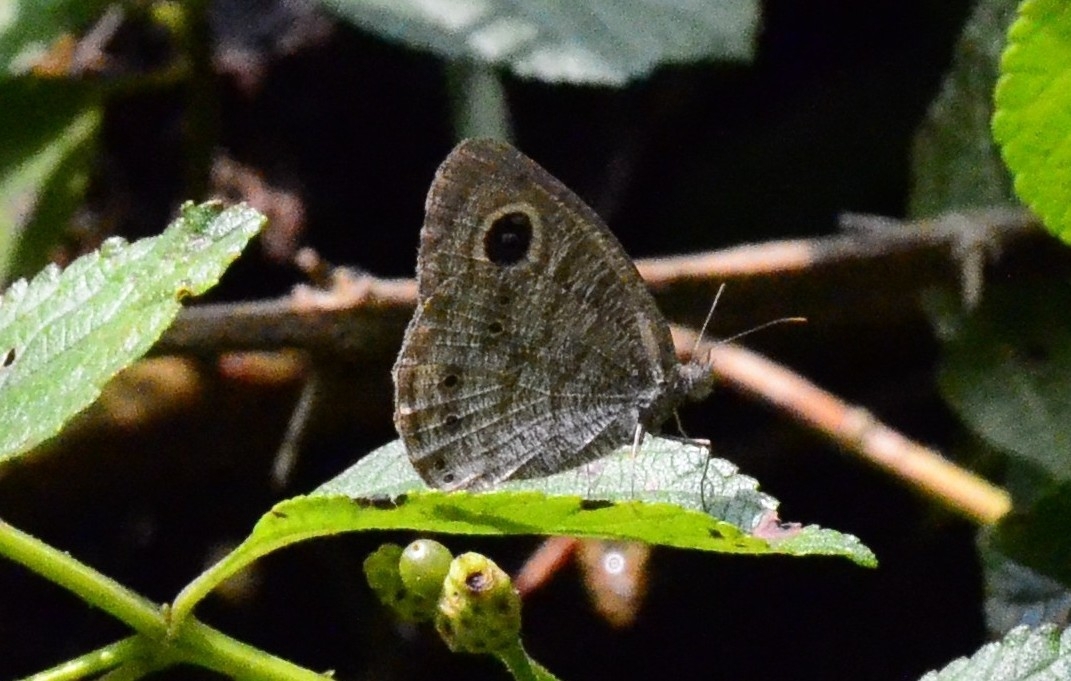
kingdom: Animalia
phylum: Arthropoda
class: Insecta
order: Lepidoptera
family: Nymphalidae
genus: Ypthima
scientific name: Ypthima baldus
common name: Common five-ring
